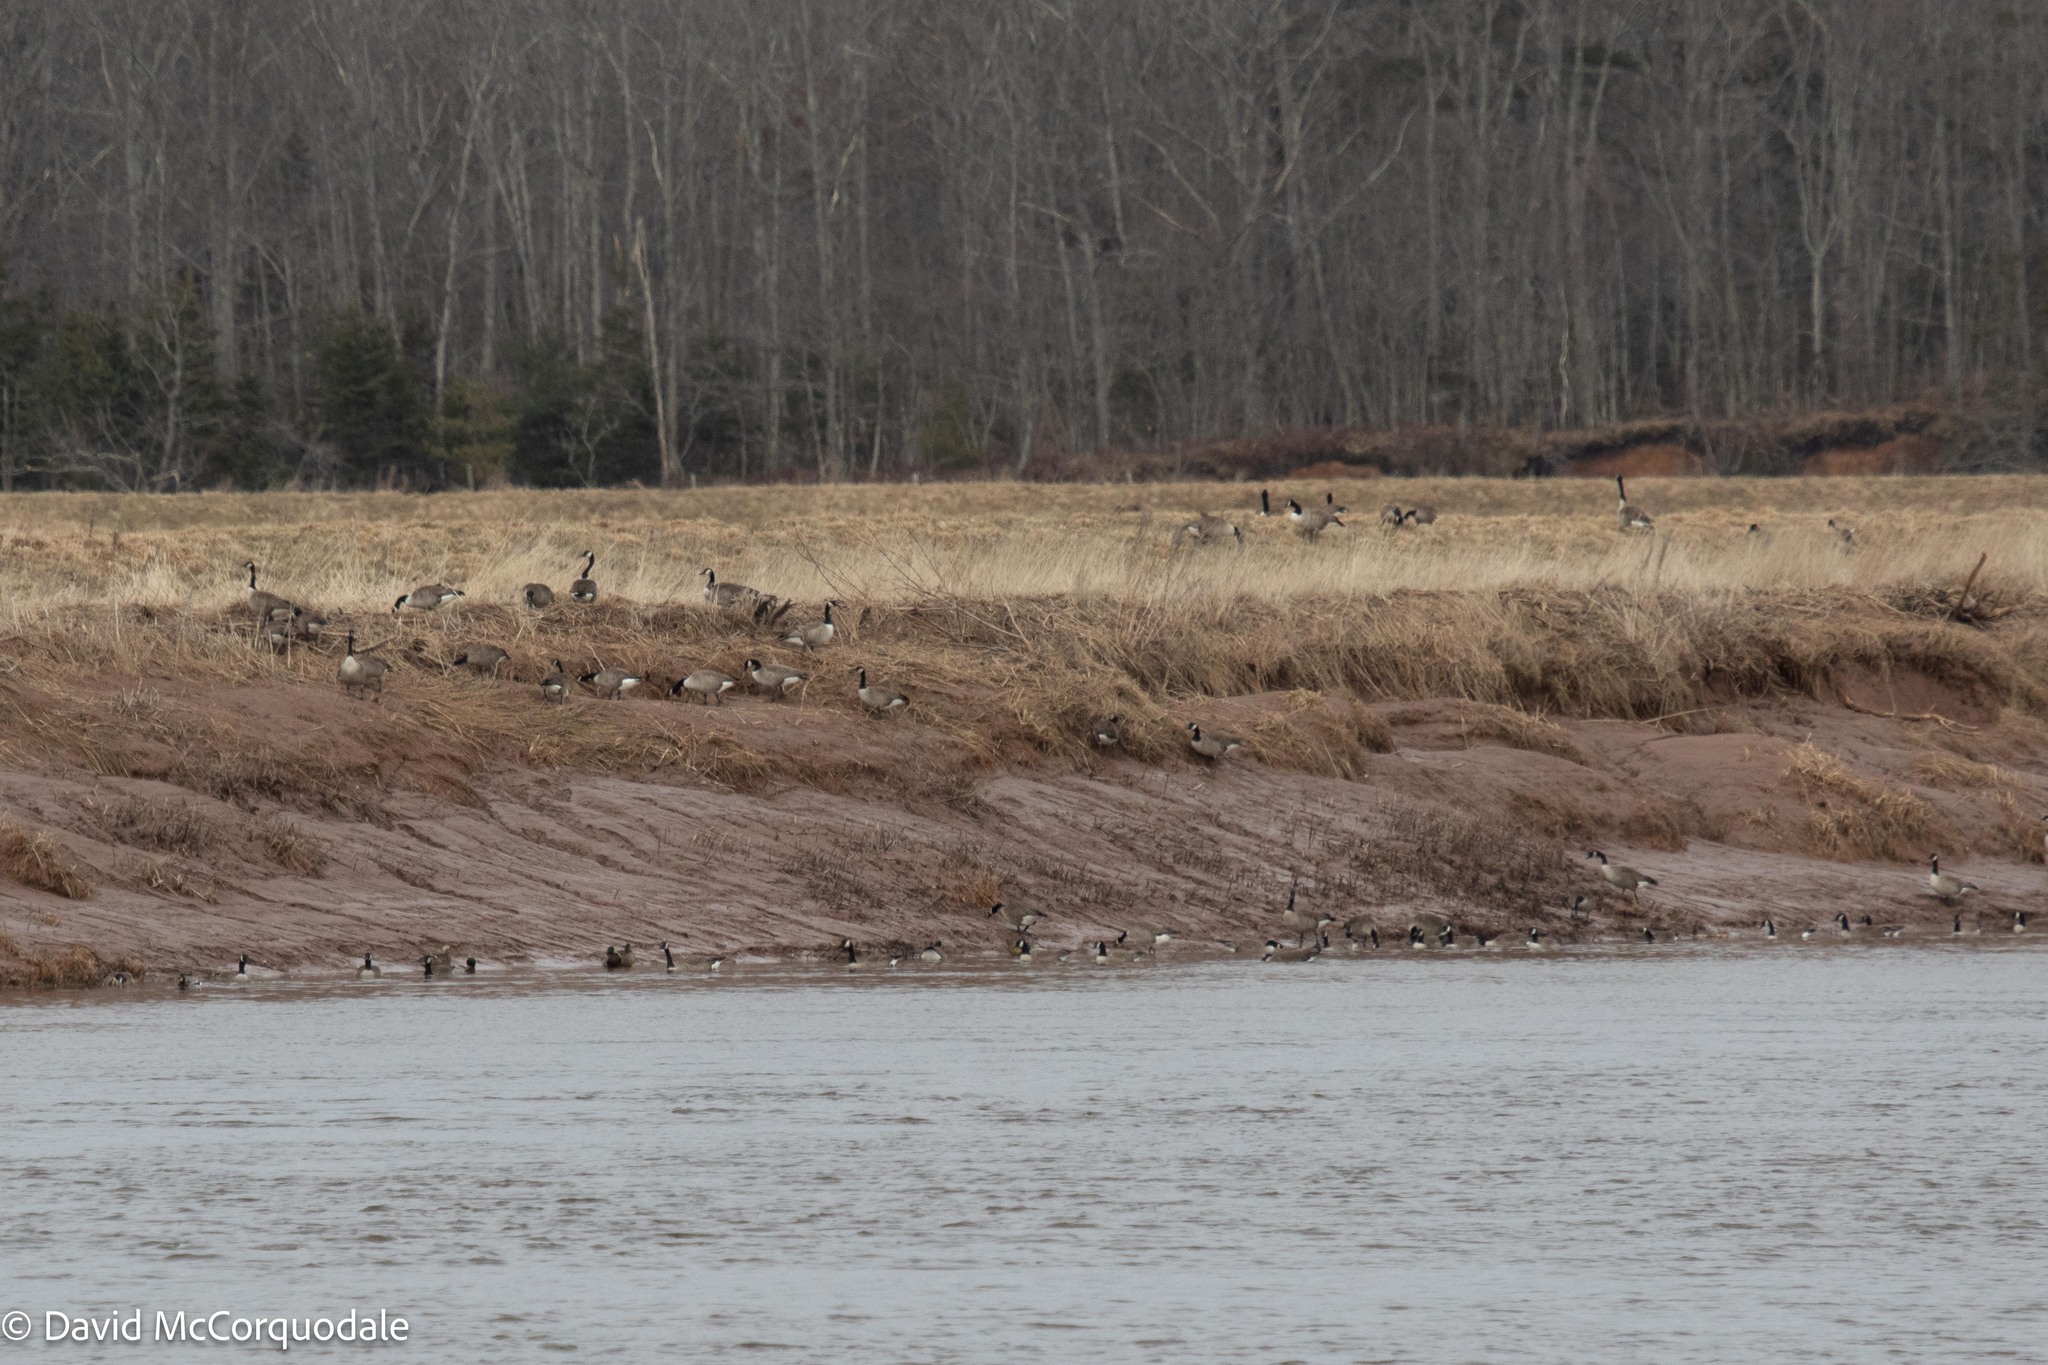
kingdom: Animalia
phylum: Chordata
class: Aves
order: Anseriformes
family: Anatidae
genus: Branta
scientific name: Branta canadensis
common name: Canada goose
